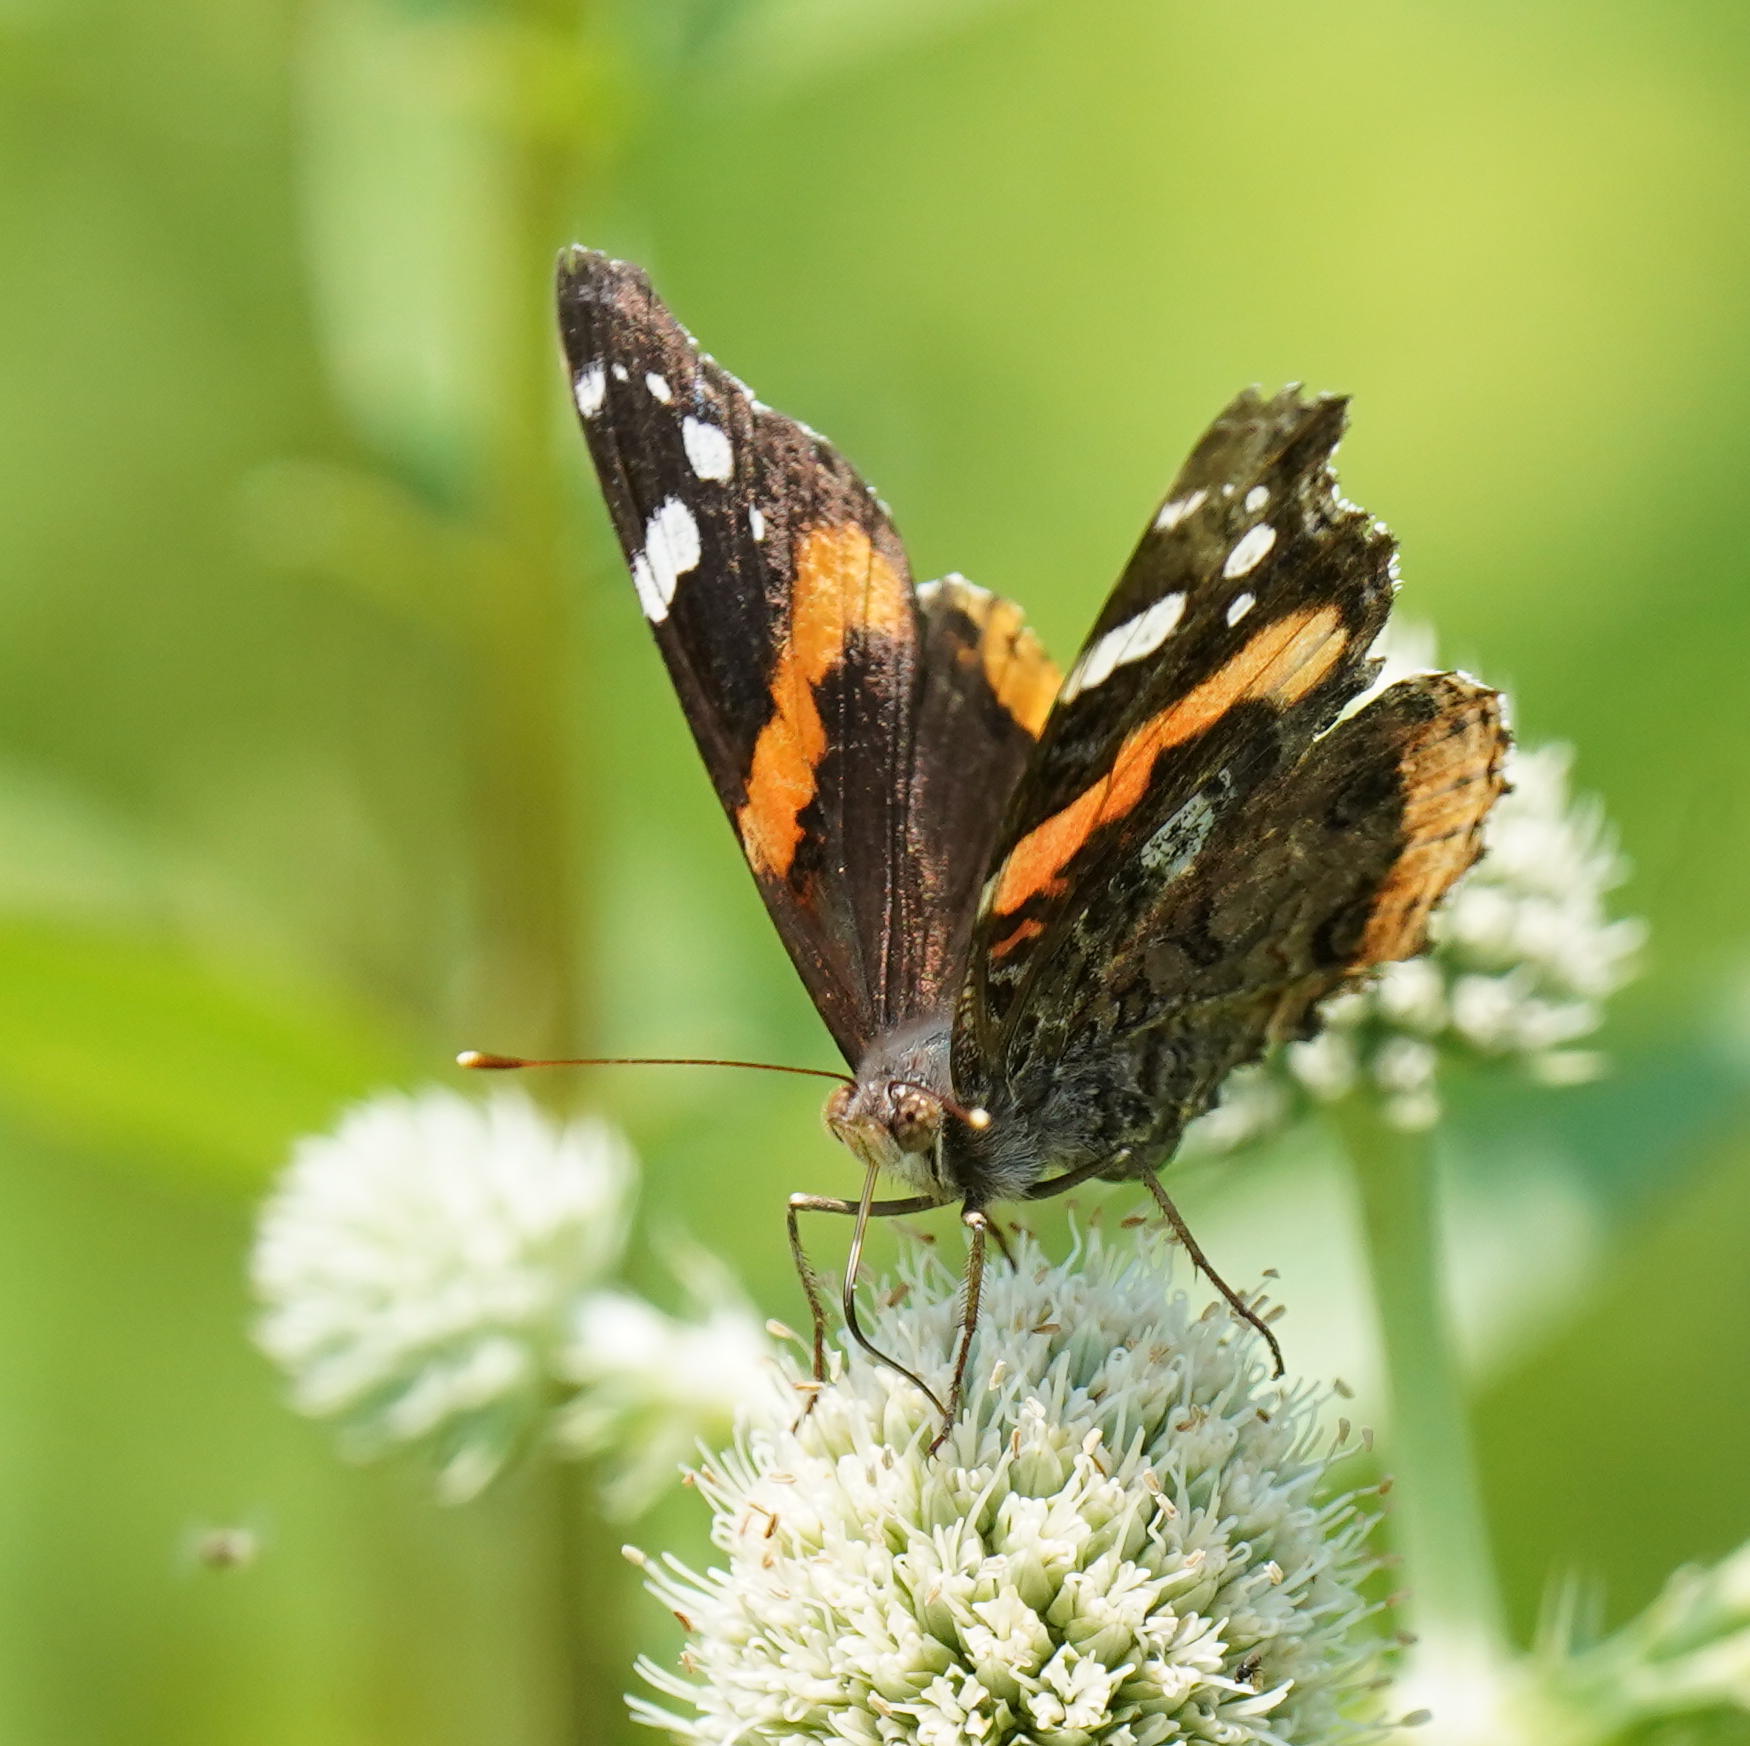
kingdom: Animalia
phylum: Arthropoda
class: Insecta
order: Lepidoptera
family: Nymphalidae
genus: Vanessa
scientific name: Vanessa atalanta
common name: Red admiral
